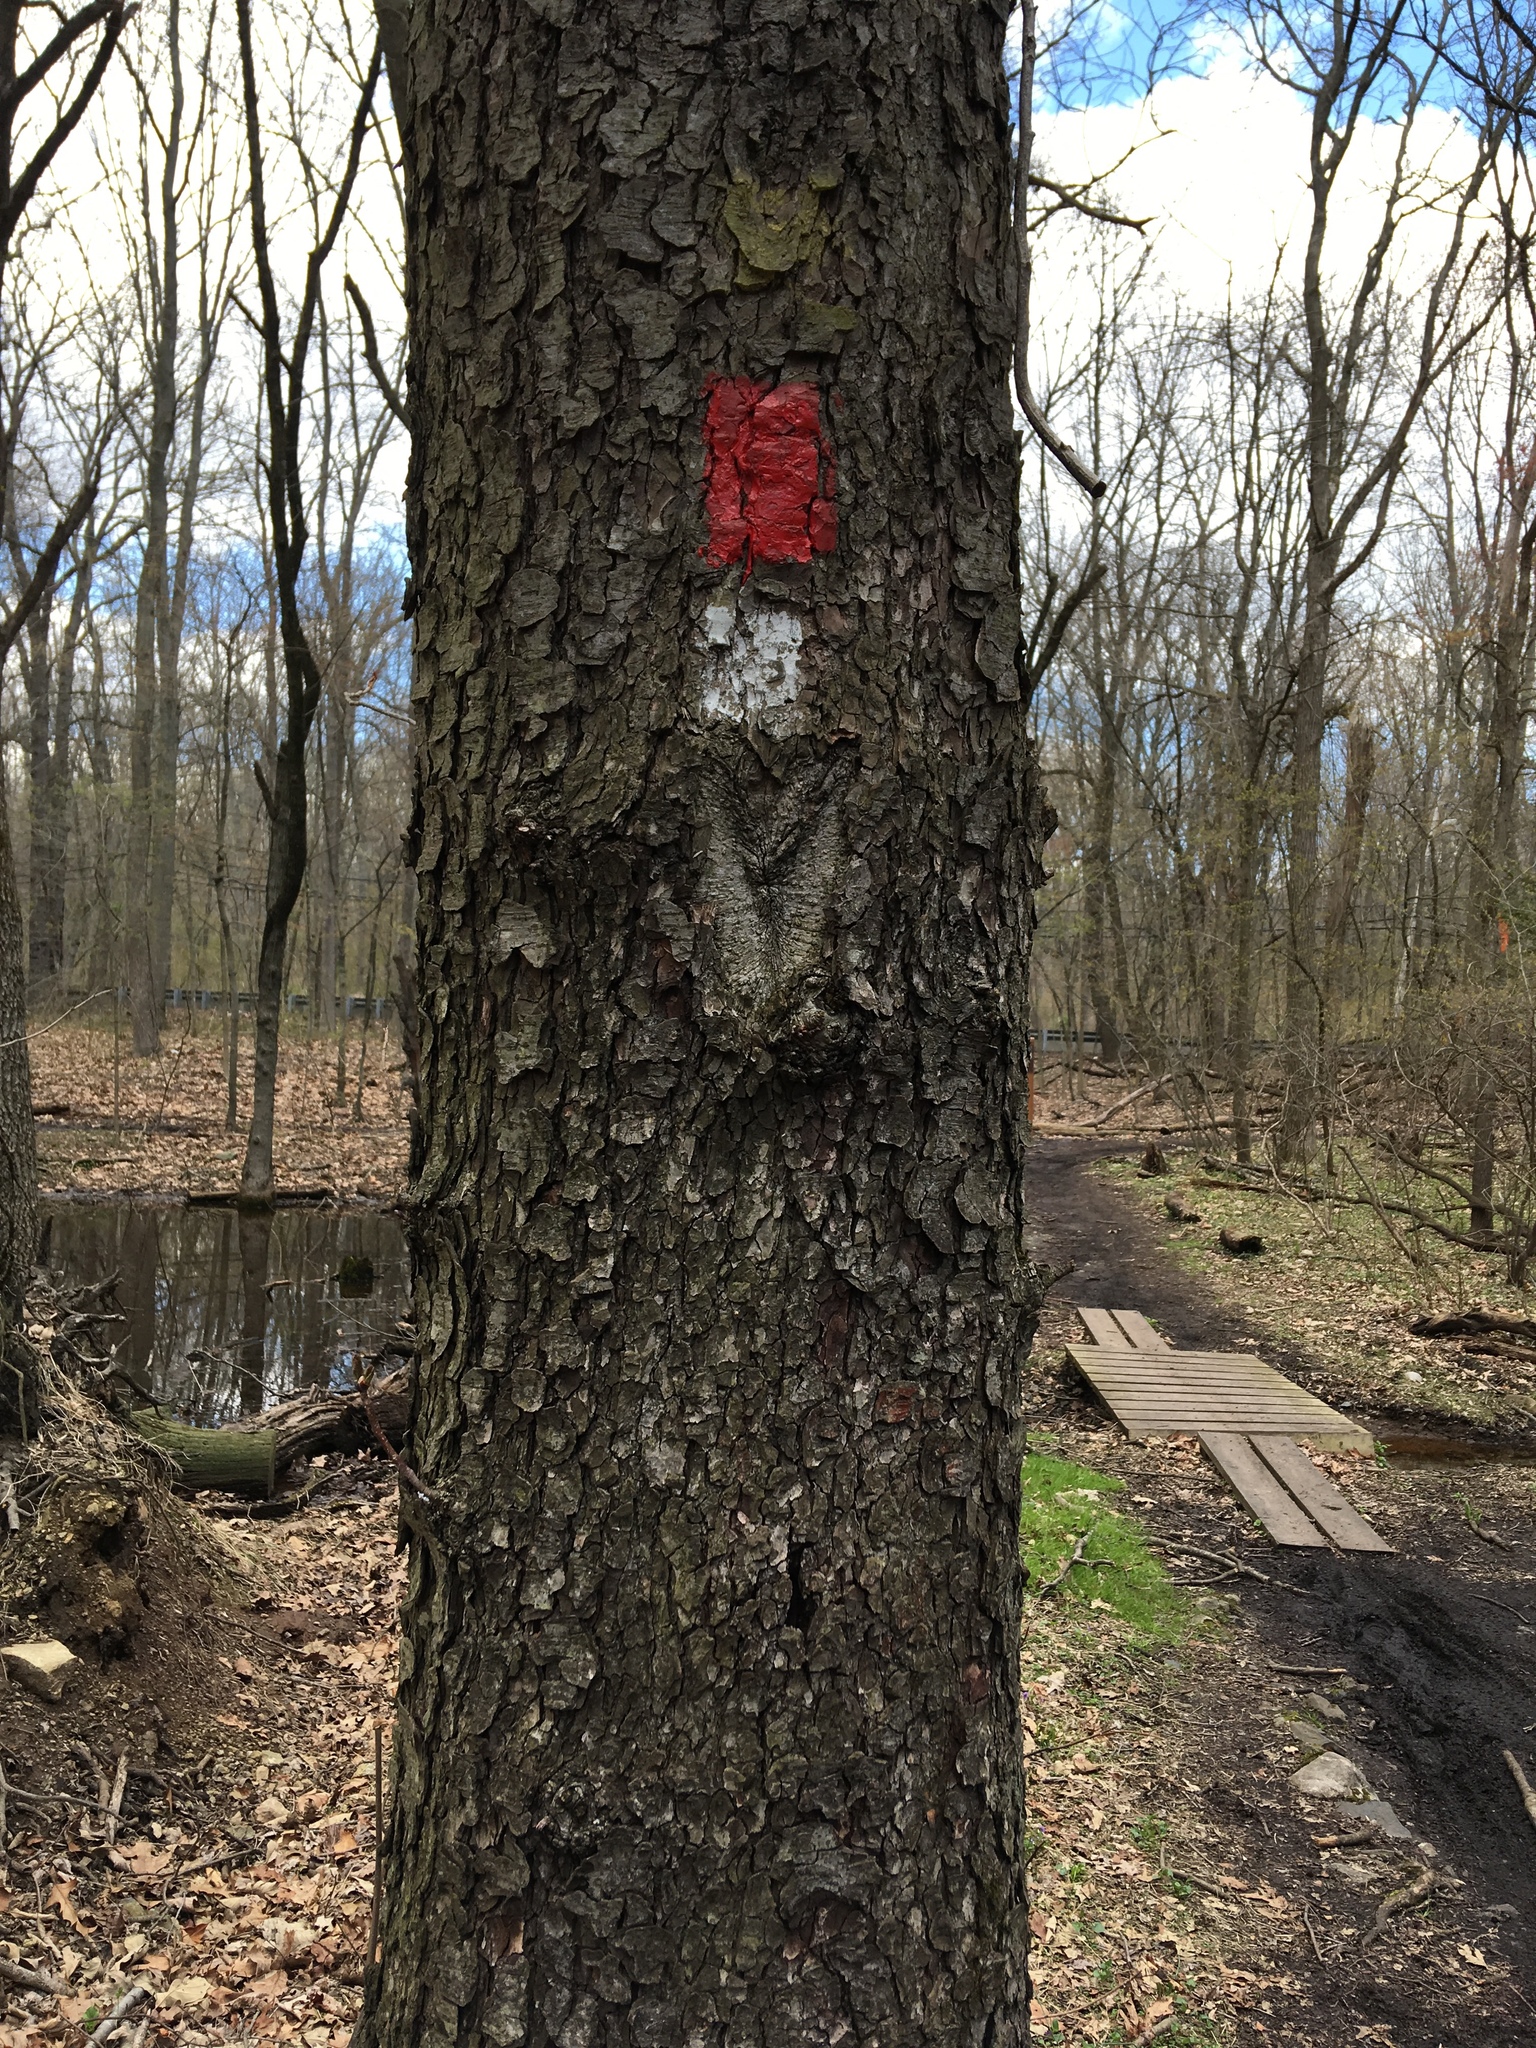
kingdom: Plantae
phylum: Tracheophyta
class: Magnoliopsida
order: Fagales
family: Betulaceae
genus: Alnus
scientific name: Alnus glutinosa
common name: Black alder
